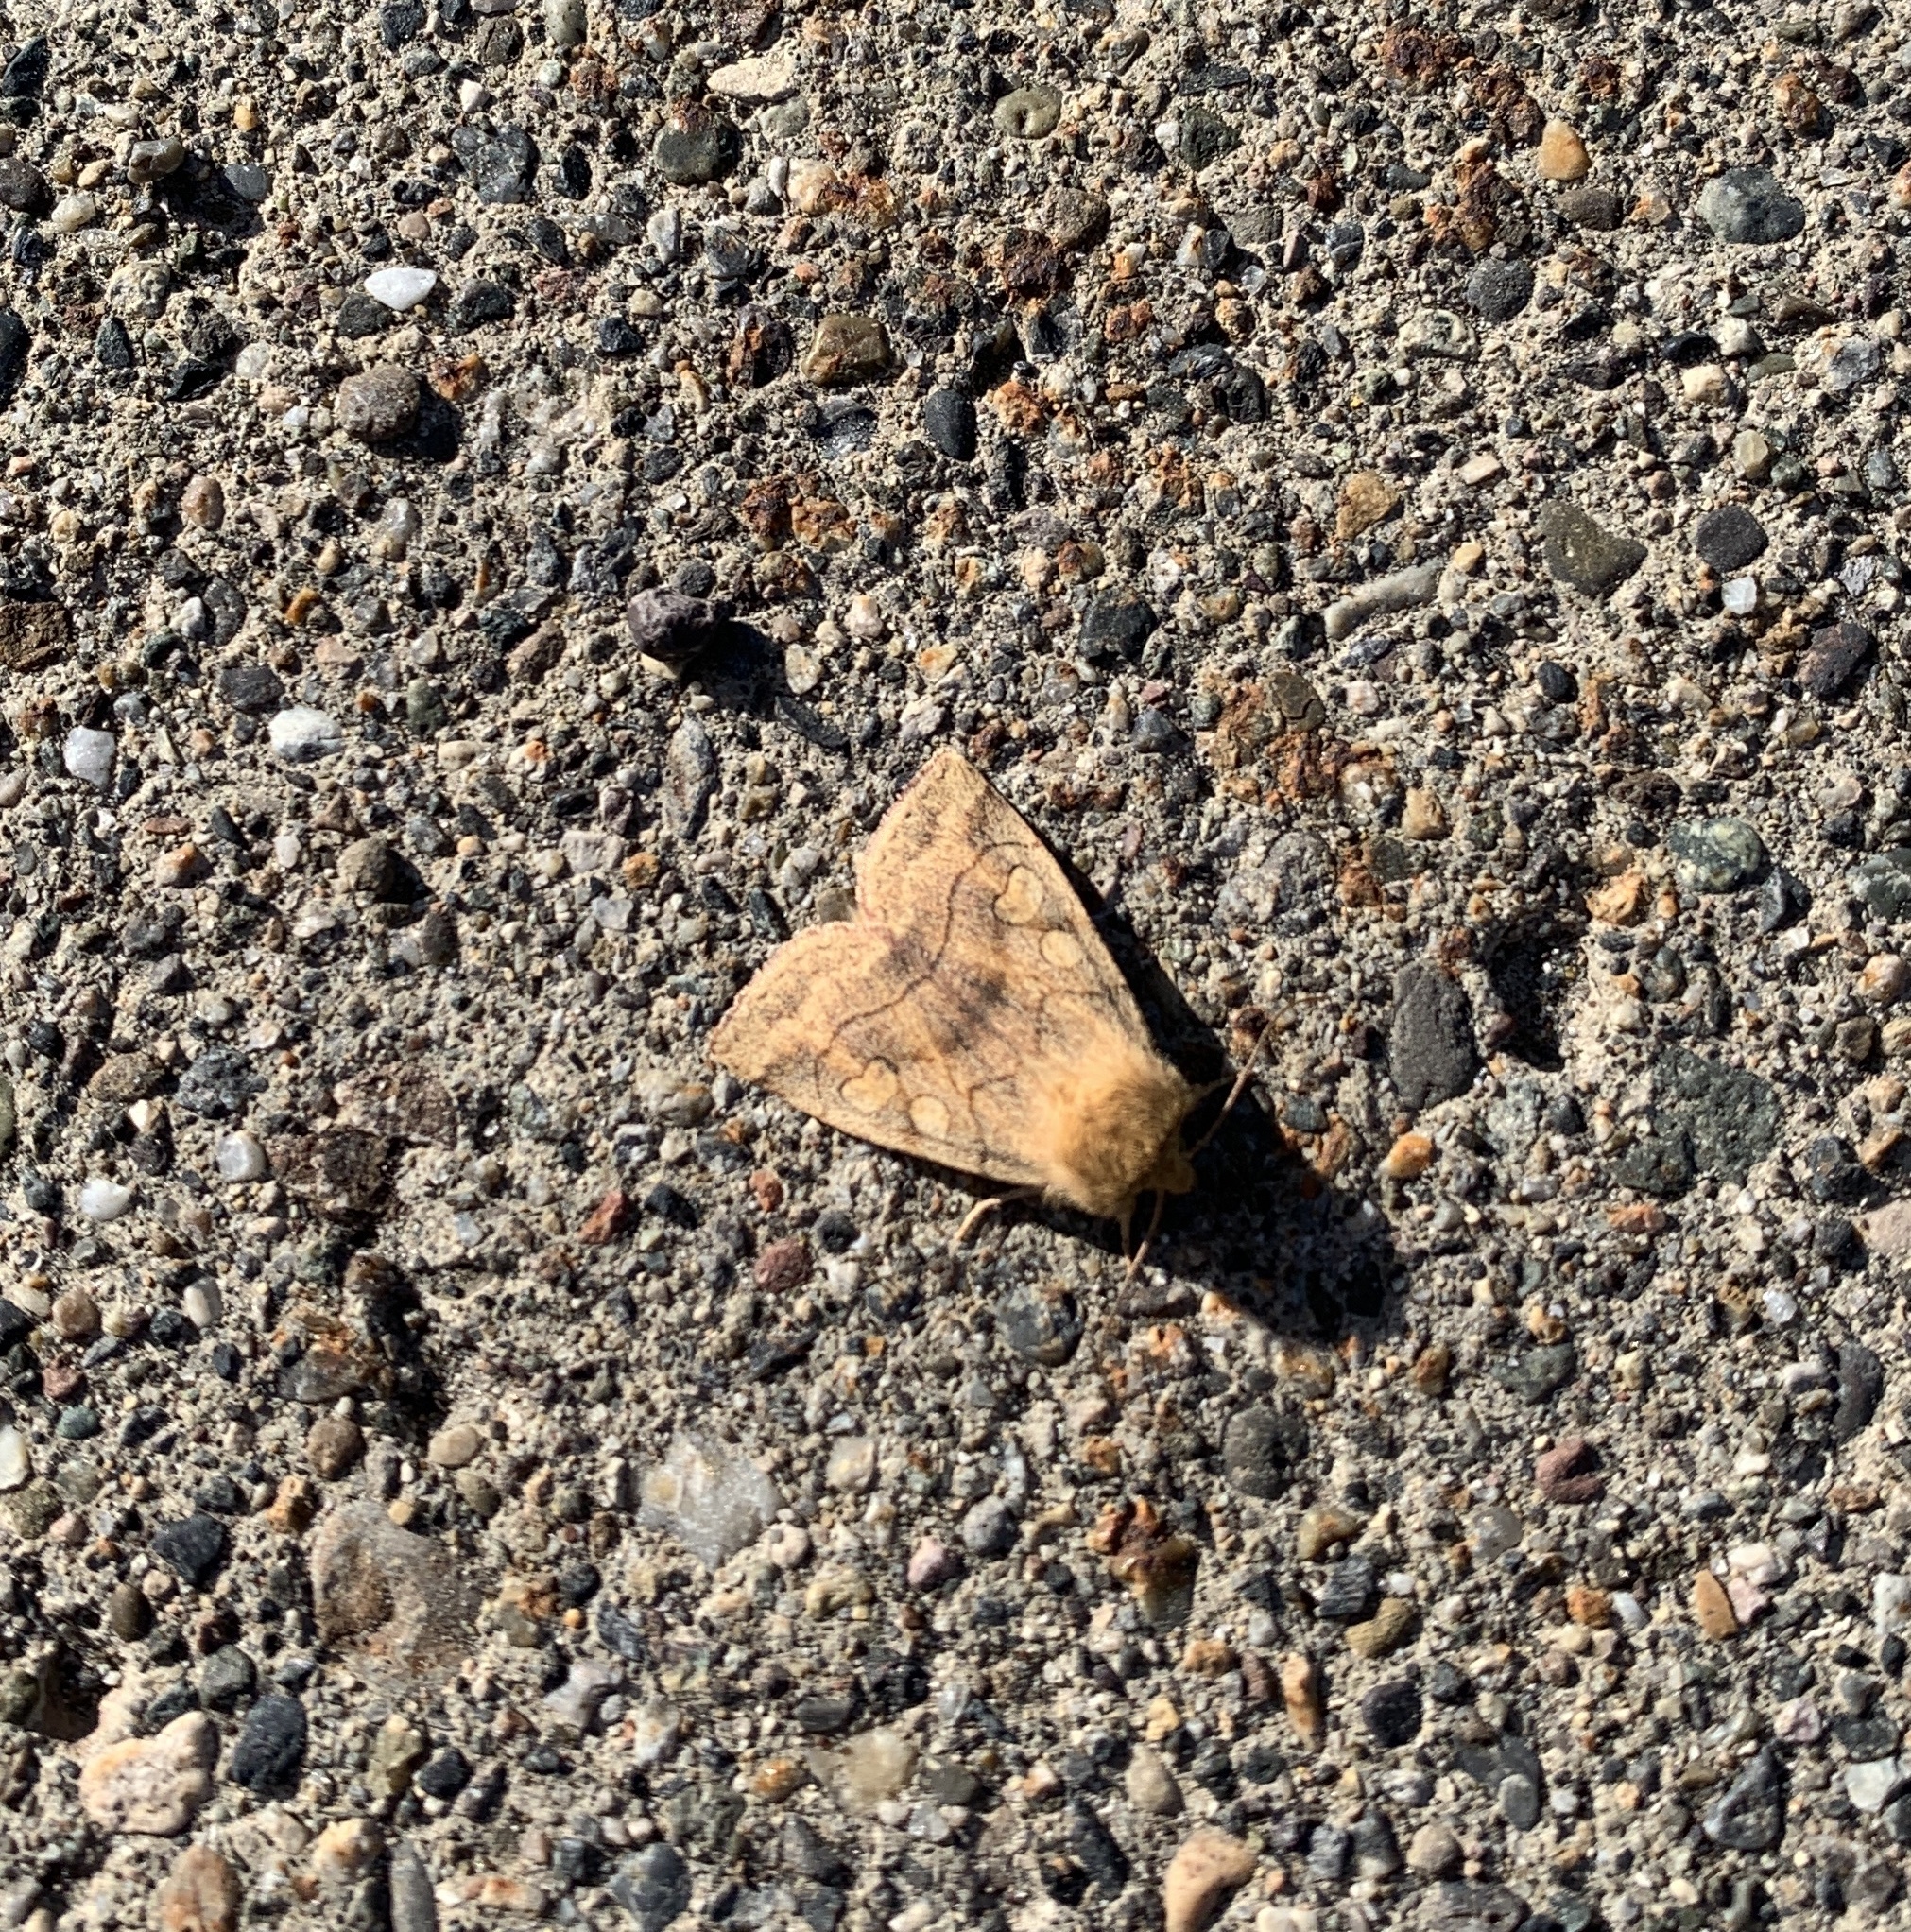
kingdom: Animalia
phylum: Arthropoda
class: Insecta
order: Lepidoptera
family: Noctuidae
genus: Enargia
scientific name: Enargia decolor
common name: Aspen twoleaf tier moth
